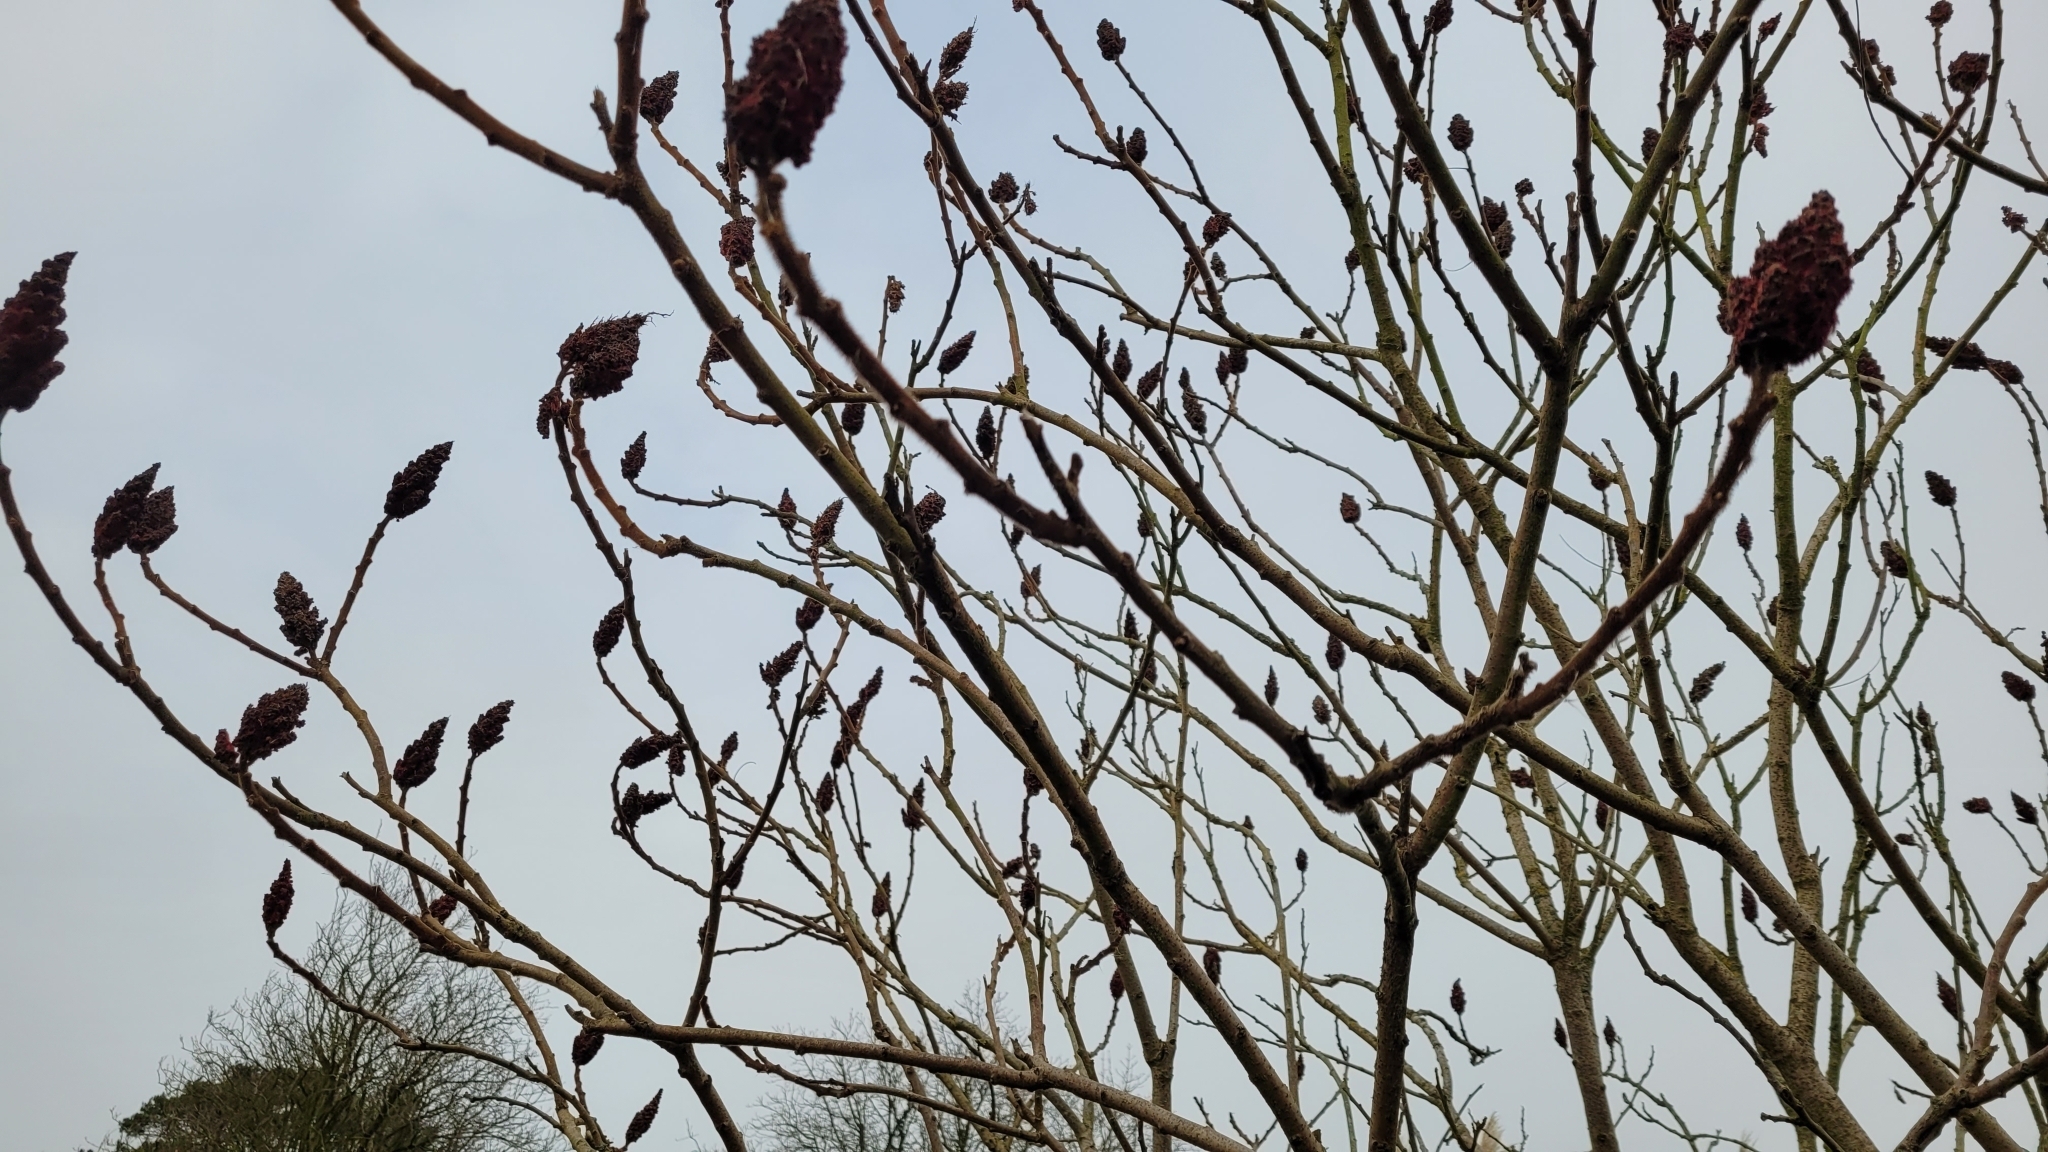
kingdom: Plantae
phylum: Tracheophyta
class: Magnoliopsida
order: Sapindales
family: Anacardiaceae
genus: Rhus
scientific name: Rhus typhina
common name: Staghorn sumac
